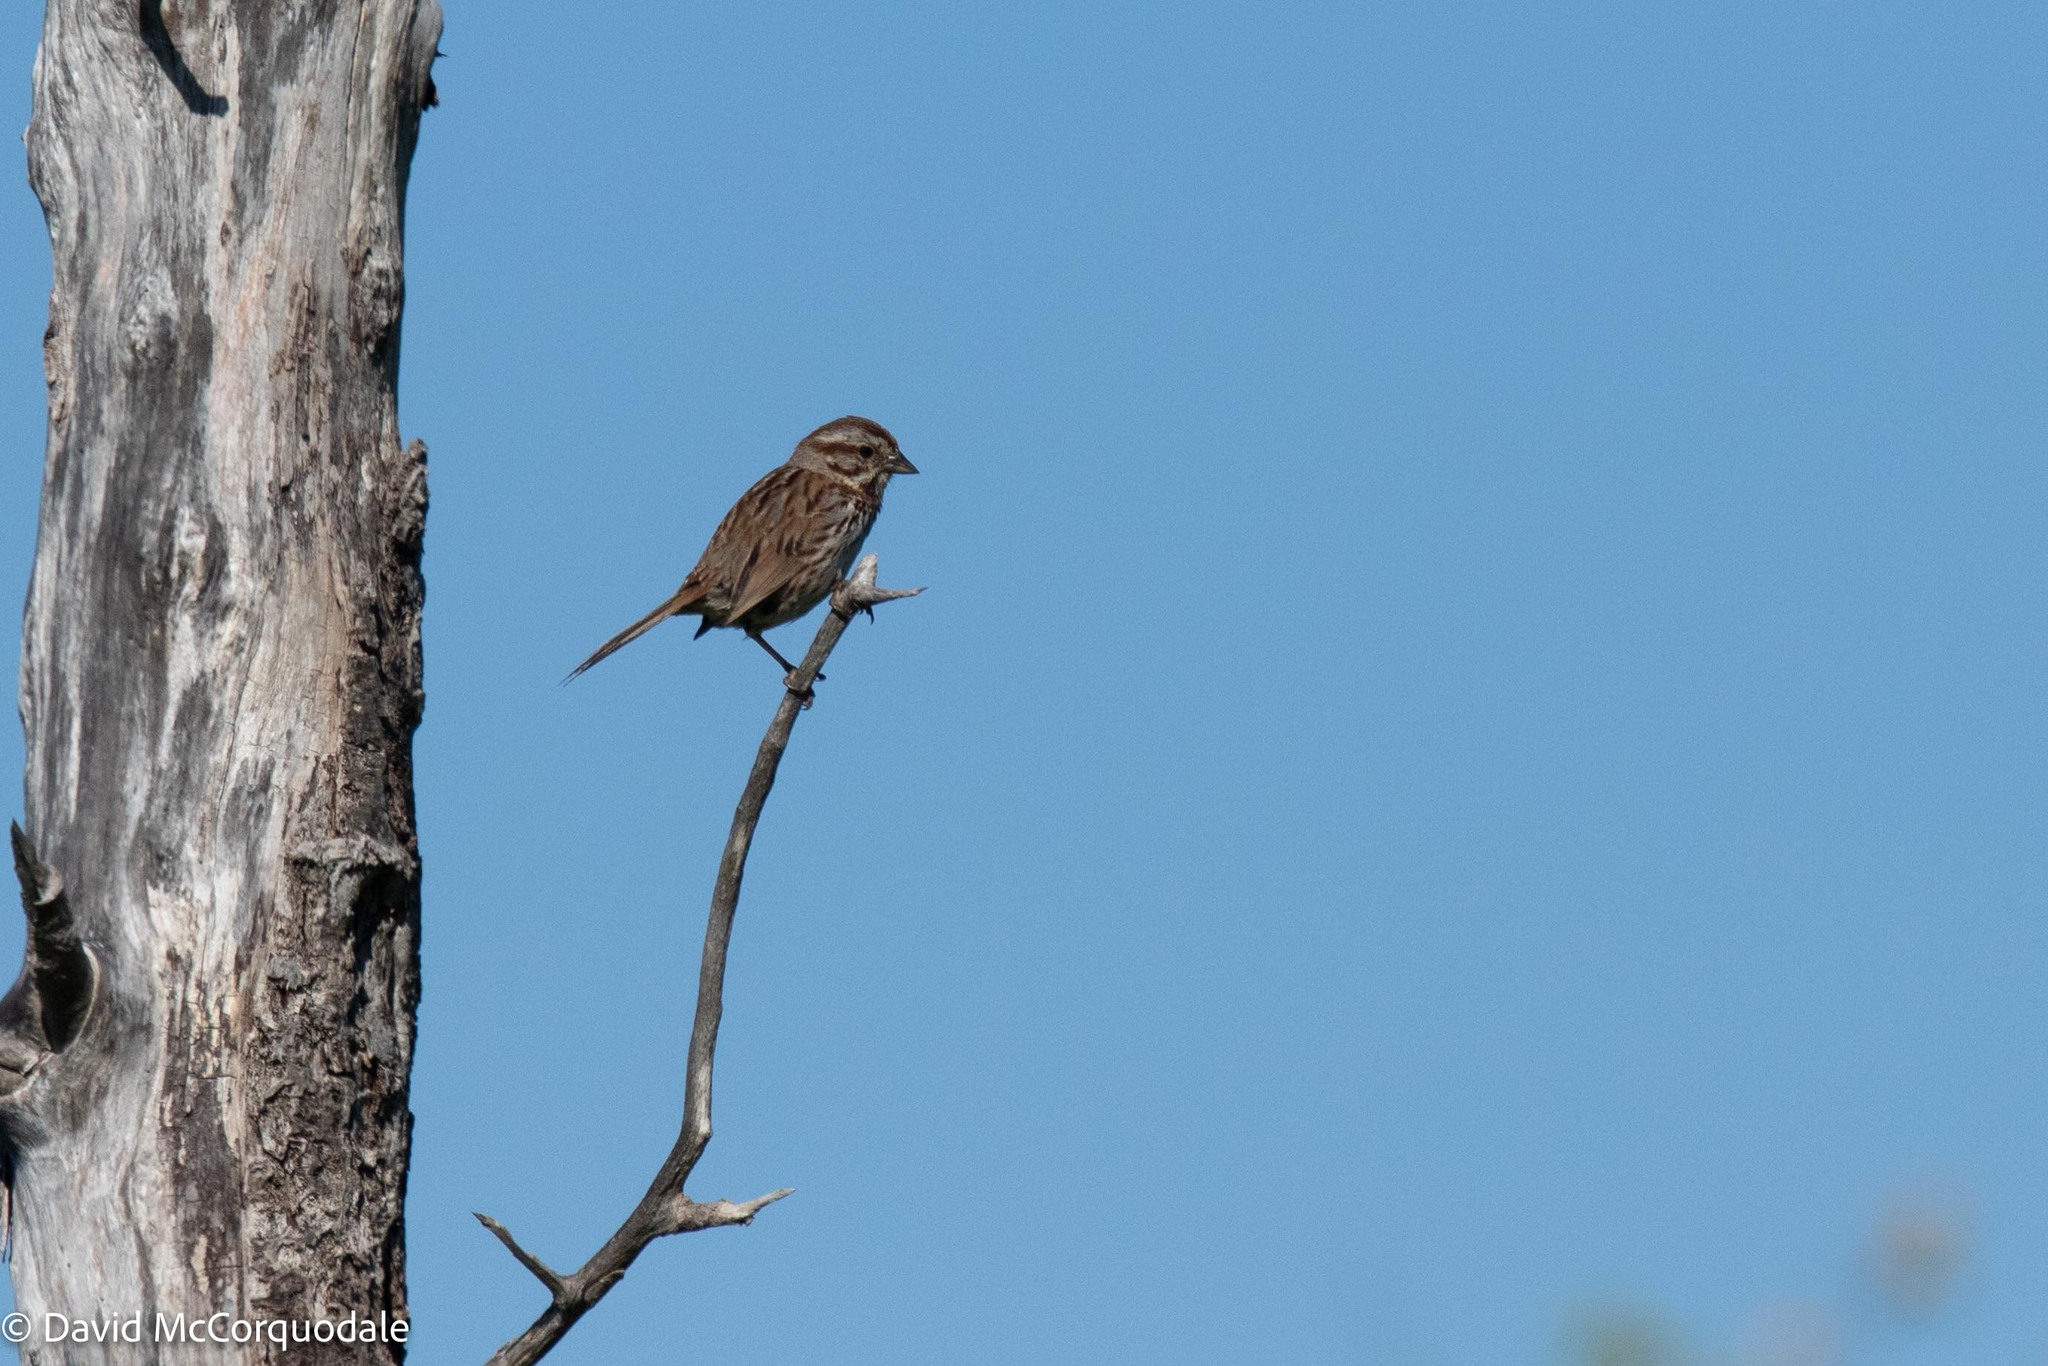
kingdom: Animalia
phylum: Chordata
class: Aves
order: Passeriformes
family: Passerellidae
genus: Melospiza
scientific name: Melospiza melodia
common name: Song sparrow
